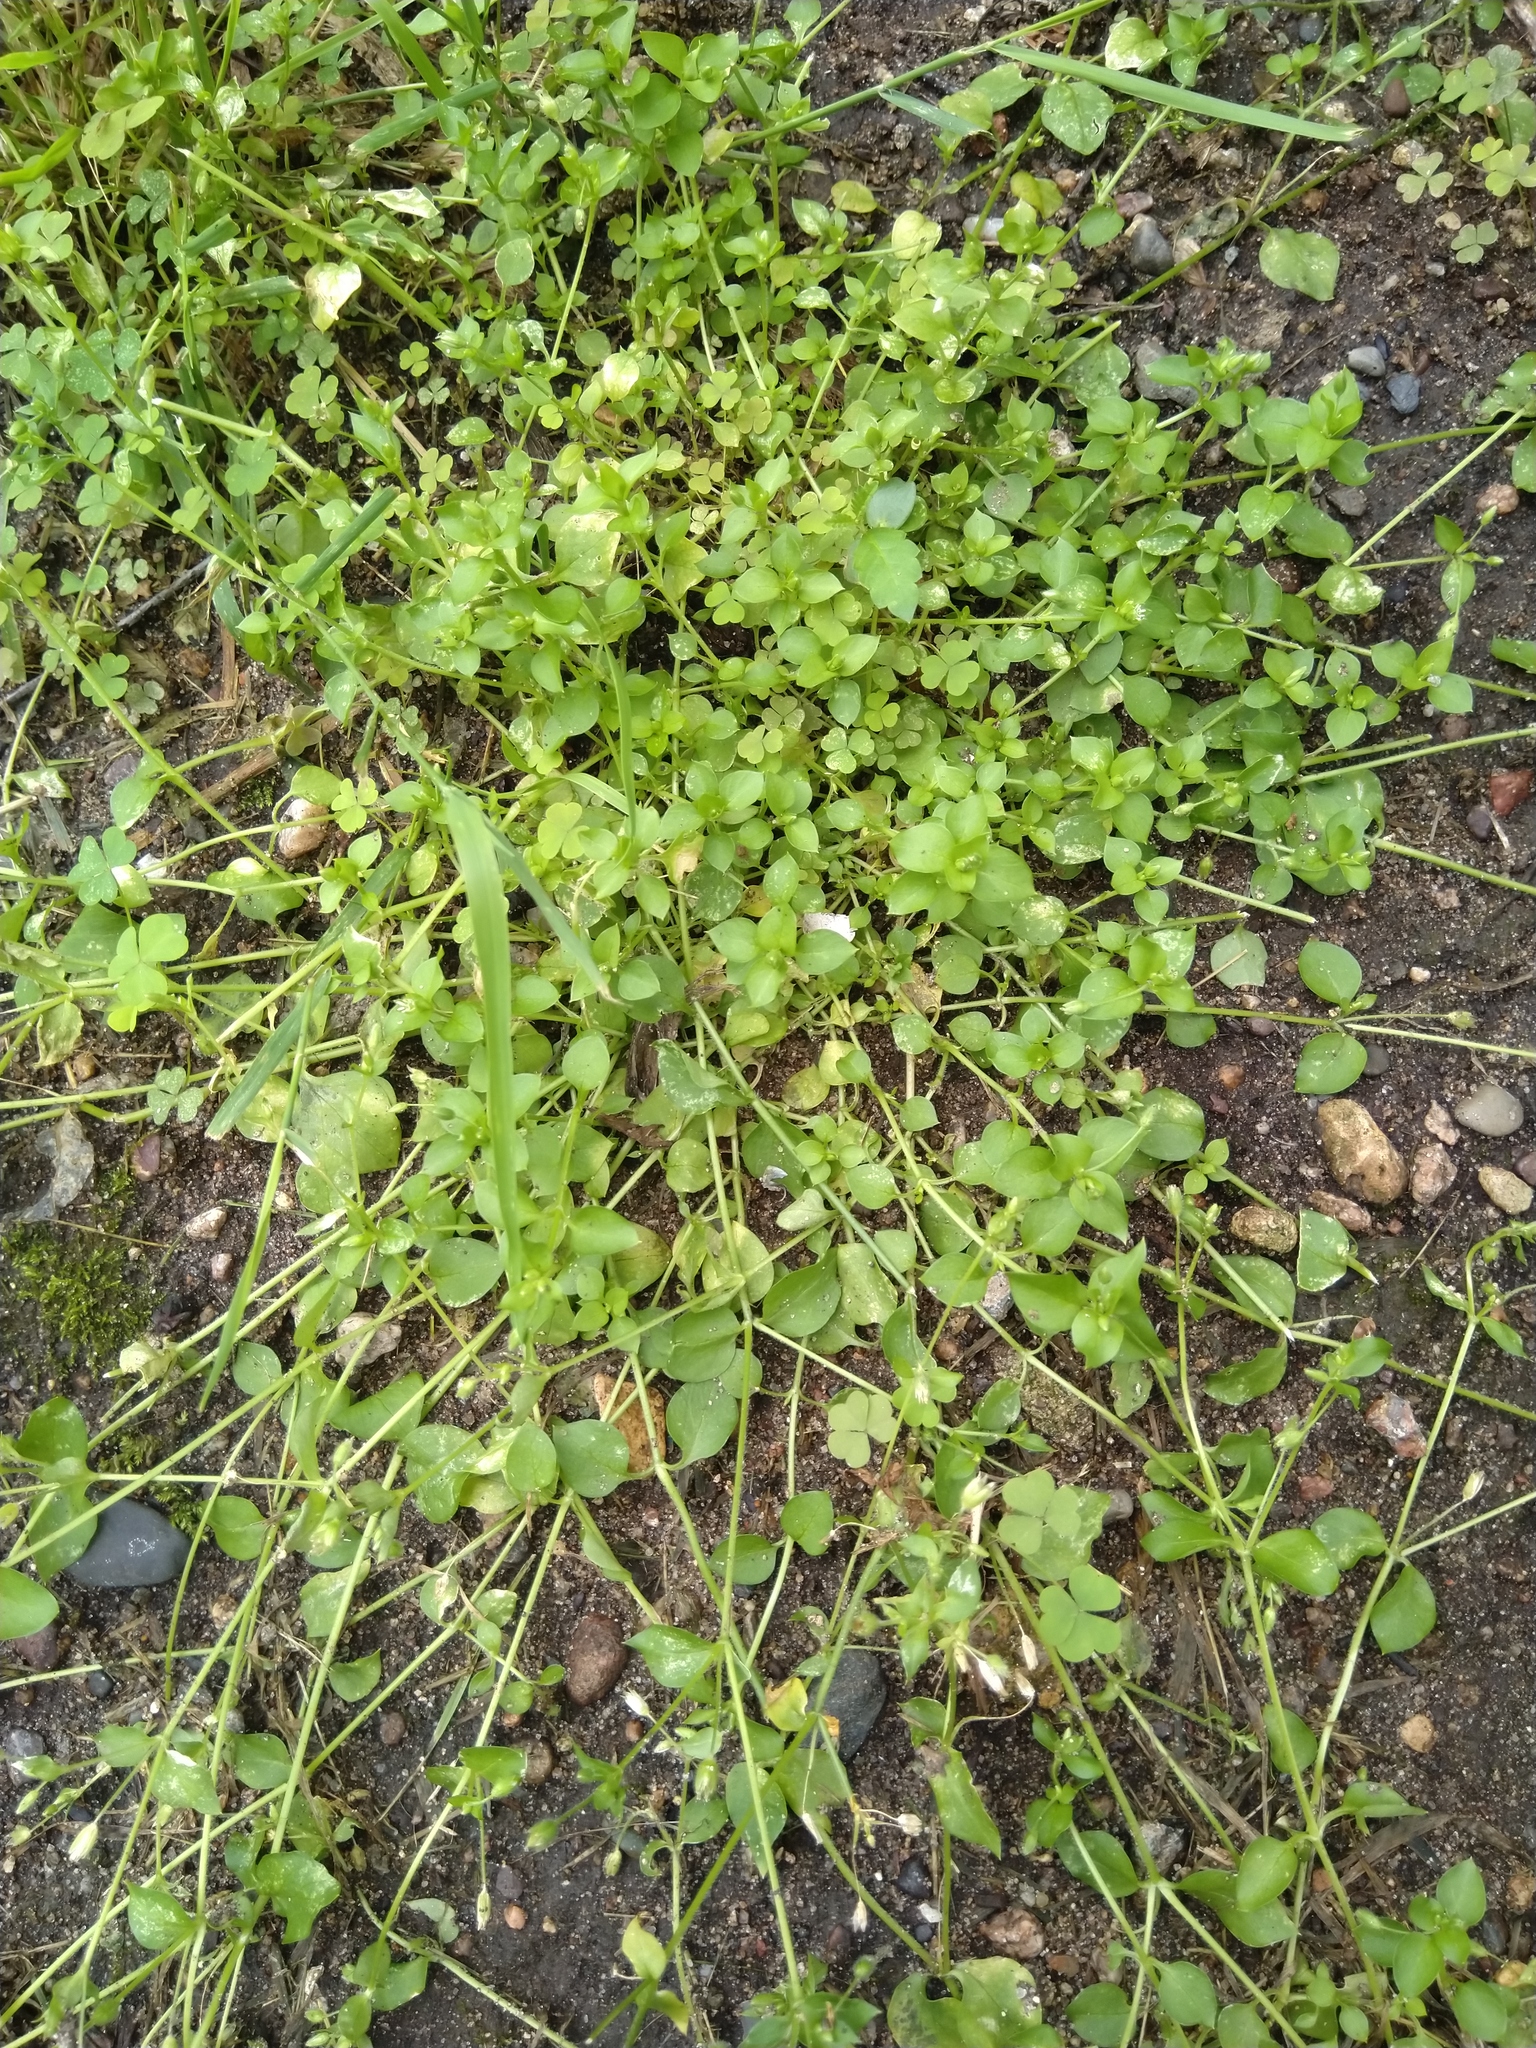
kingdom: Plantae
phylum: Tracheophyta
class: Magnoliopsida
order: Caryophyllales
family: Caryophyllaceae
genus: Stellaria
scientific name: Stellaria media
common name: Common chickweed
